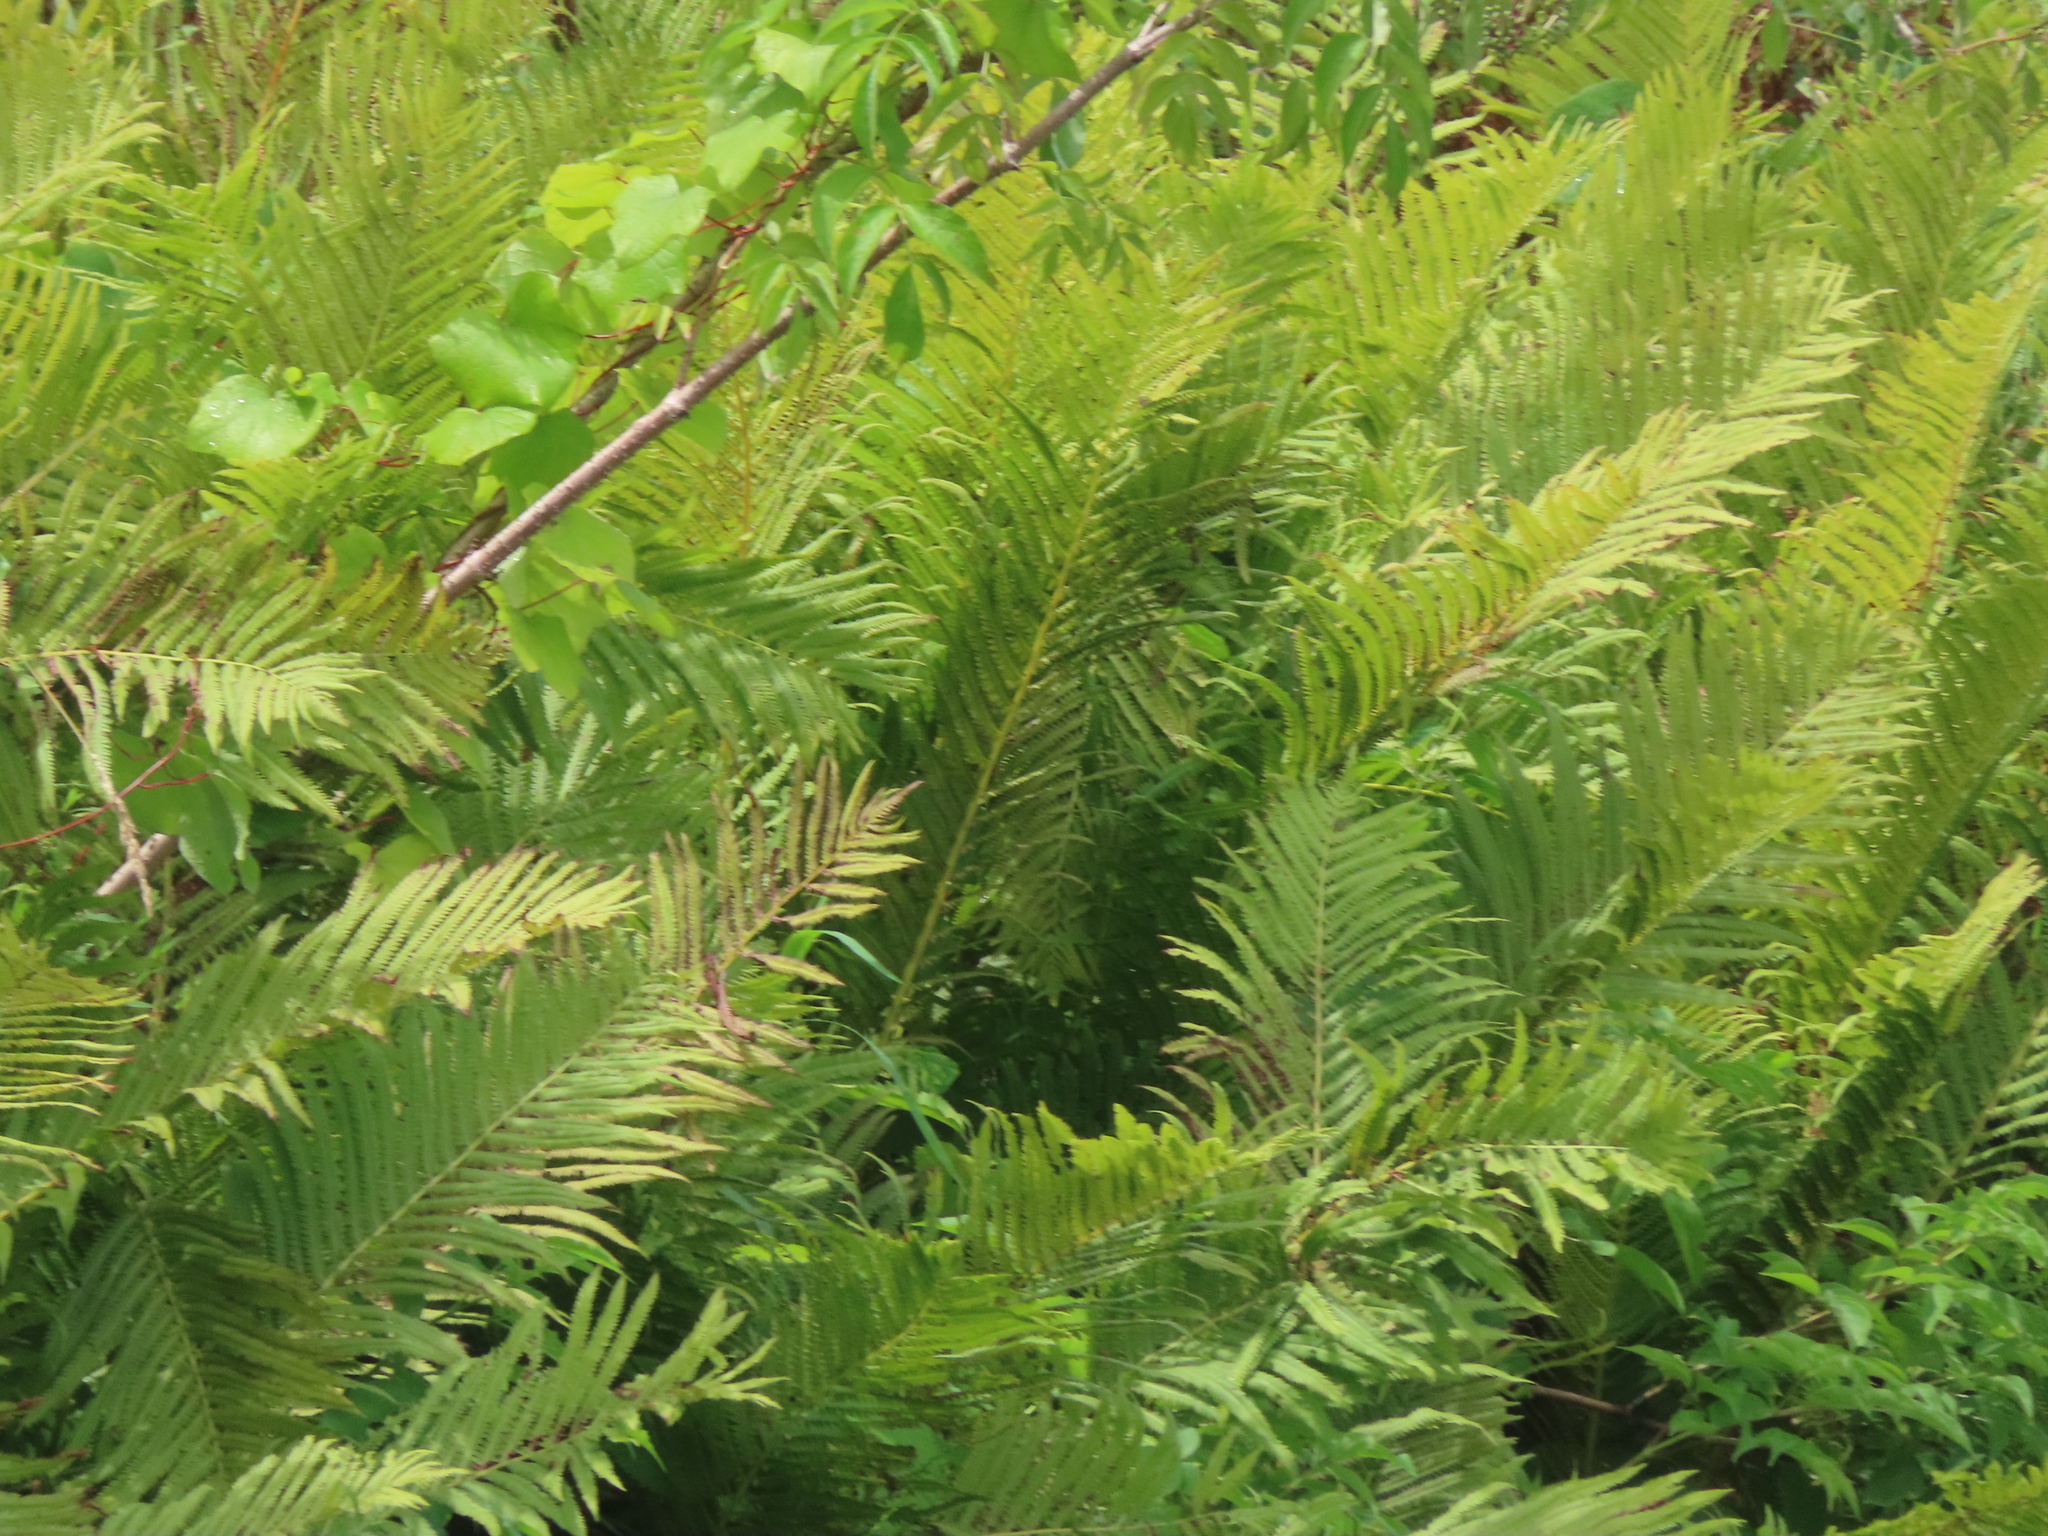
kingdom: Plantae
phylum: Tracheophyta
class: Polypodiopsida
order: Polypodiales
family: Onocleaceae
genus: Matteuccia
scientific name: Matteuccia struthiopteris
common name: Ostrich fern
